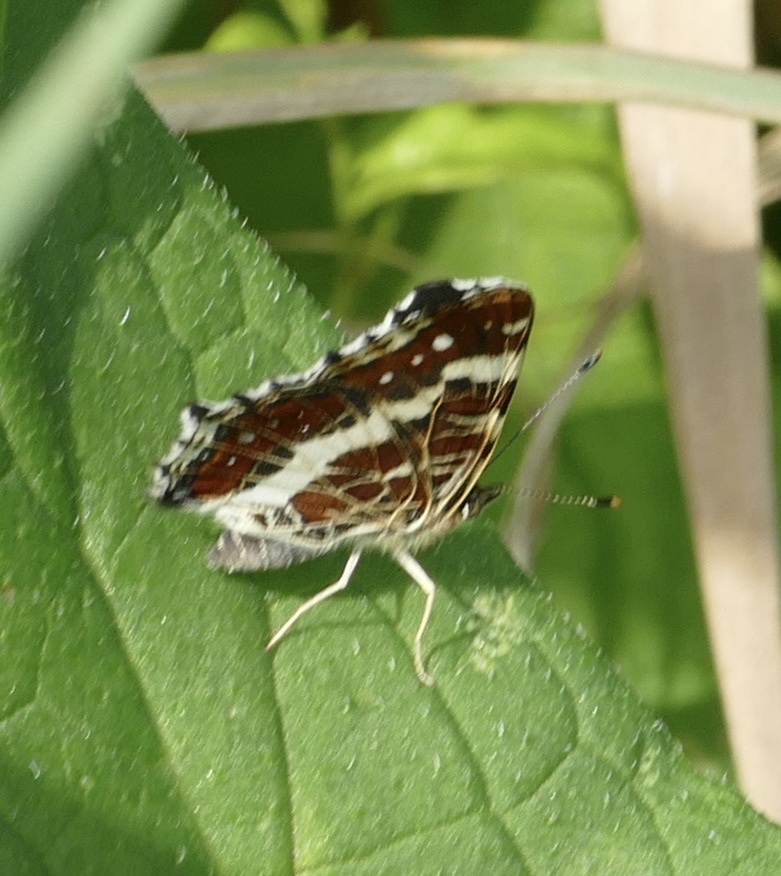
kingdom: Animalia
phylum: Arthropoda
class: Insecta
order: Lepidoptera
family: Nymphalidae
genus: Araschnia
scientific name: Araschnia levana
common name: Map butterfly
